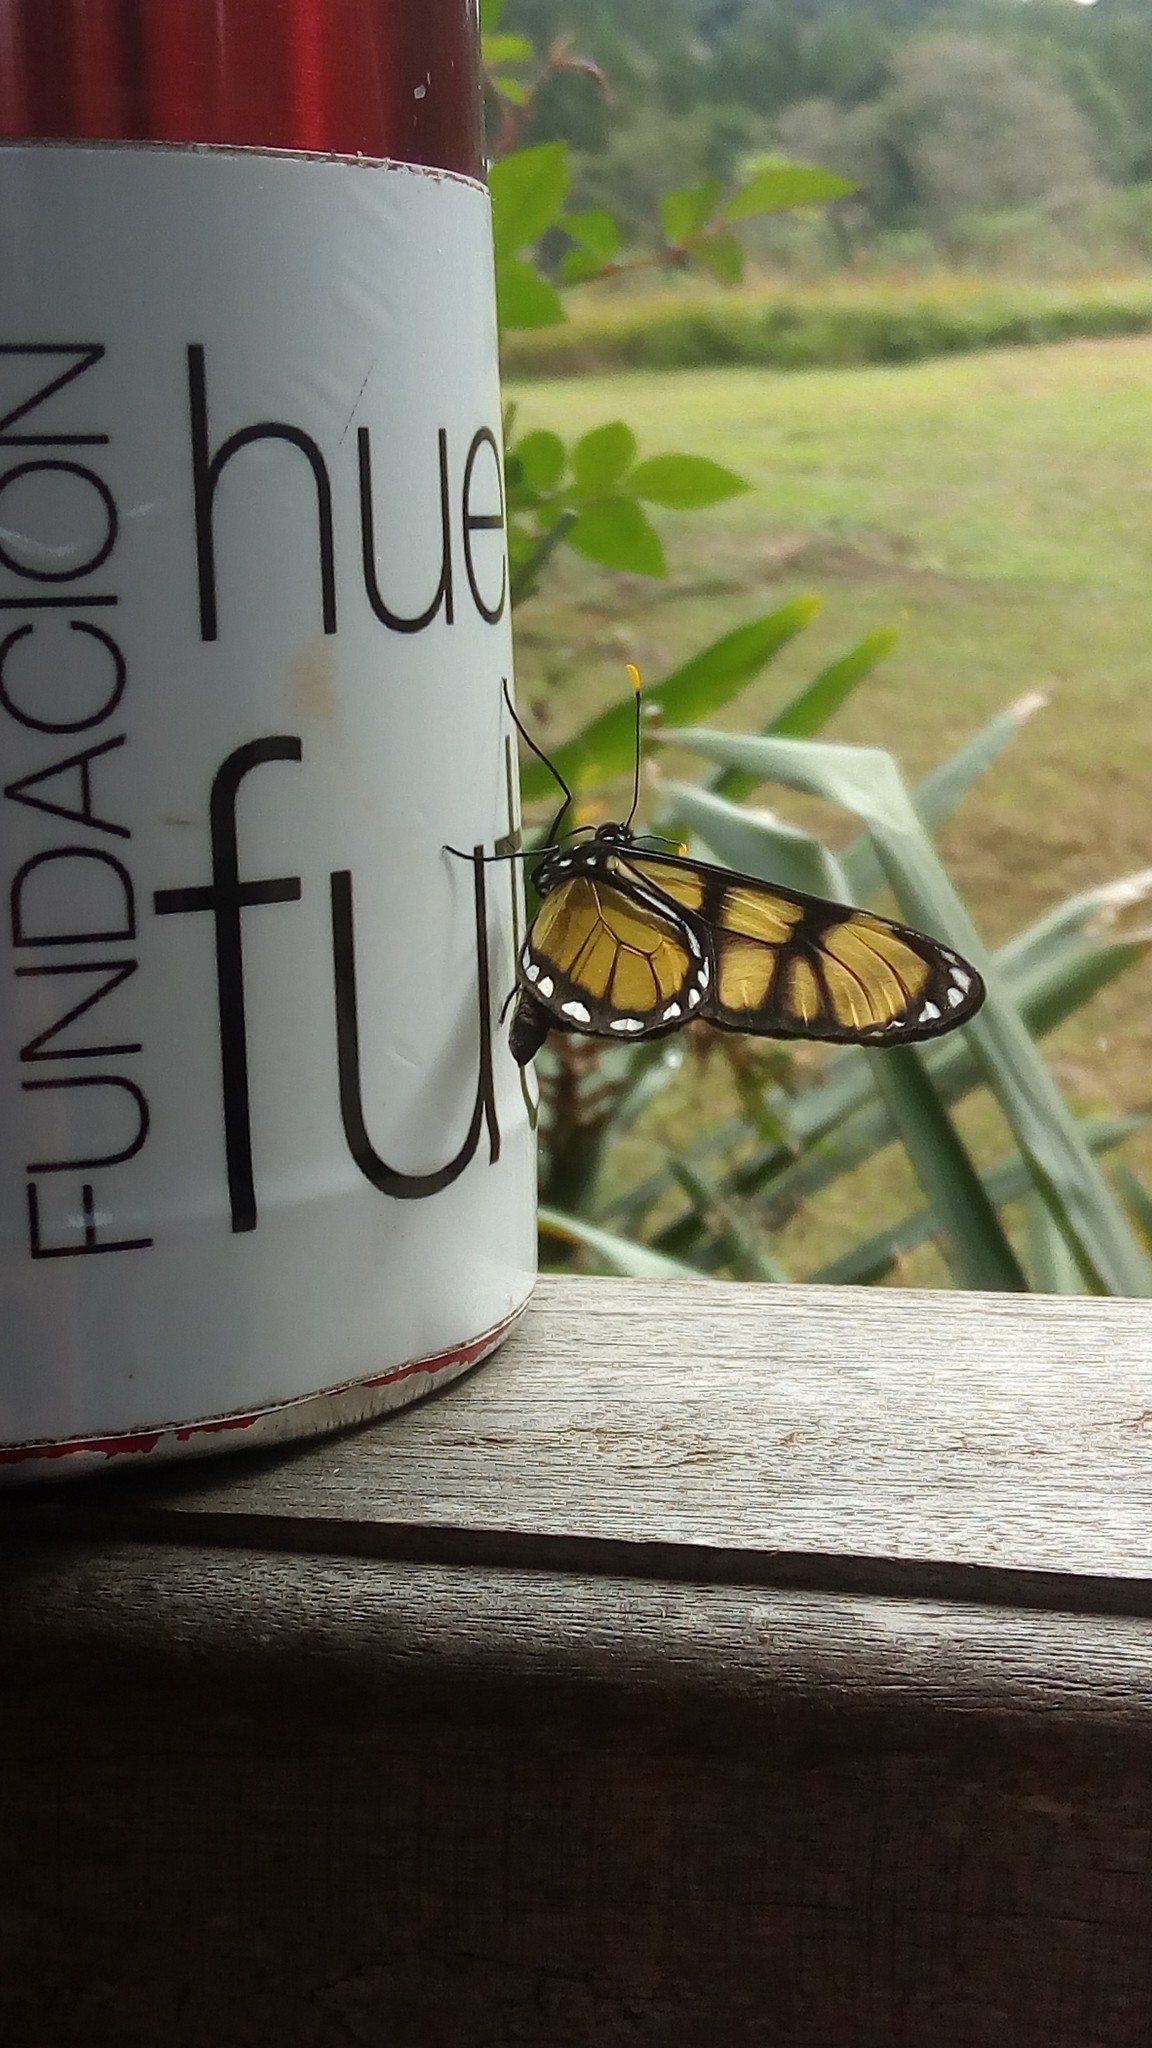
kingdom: Animalia
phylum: Arthropoda
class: Insecta
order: Lepidoptera
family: Nymphalidae
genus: Dircenna
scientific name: Dircenna dero
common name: Dero clearwing
